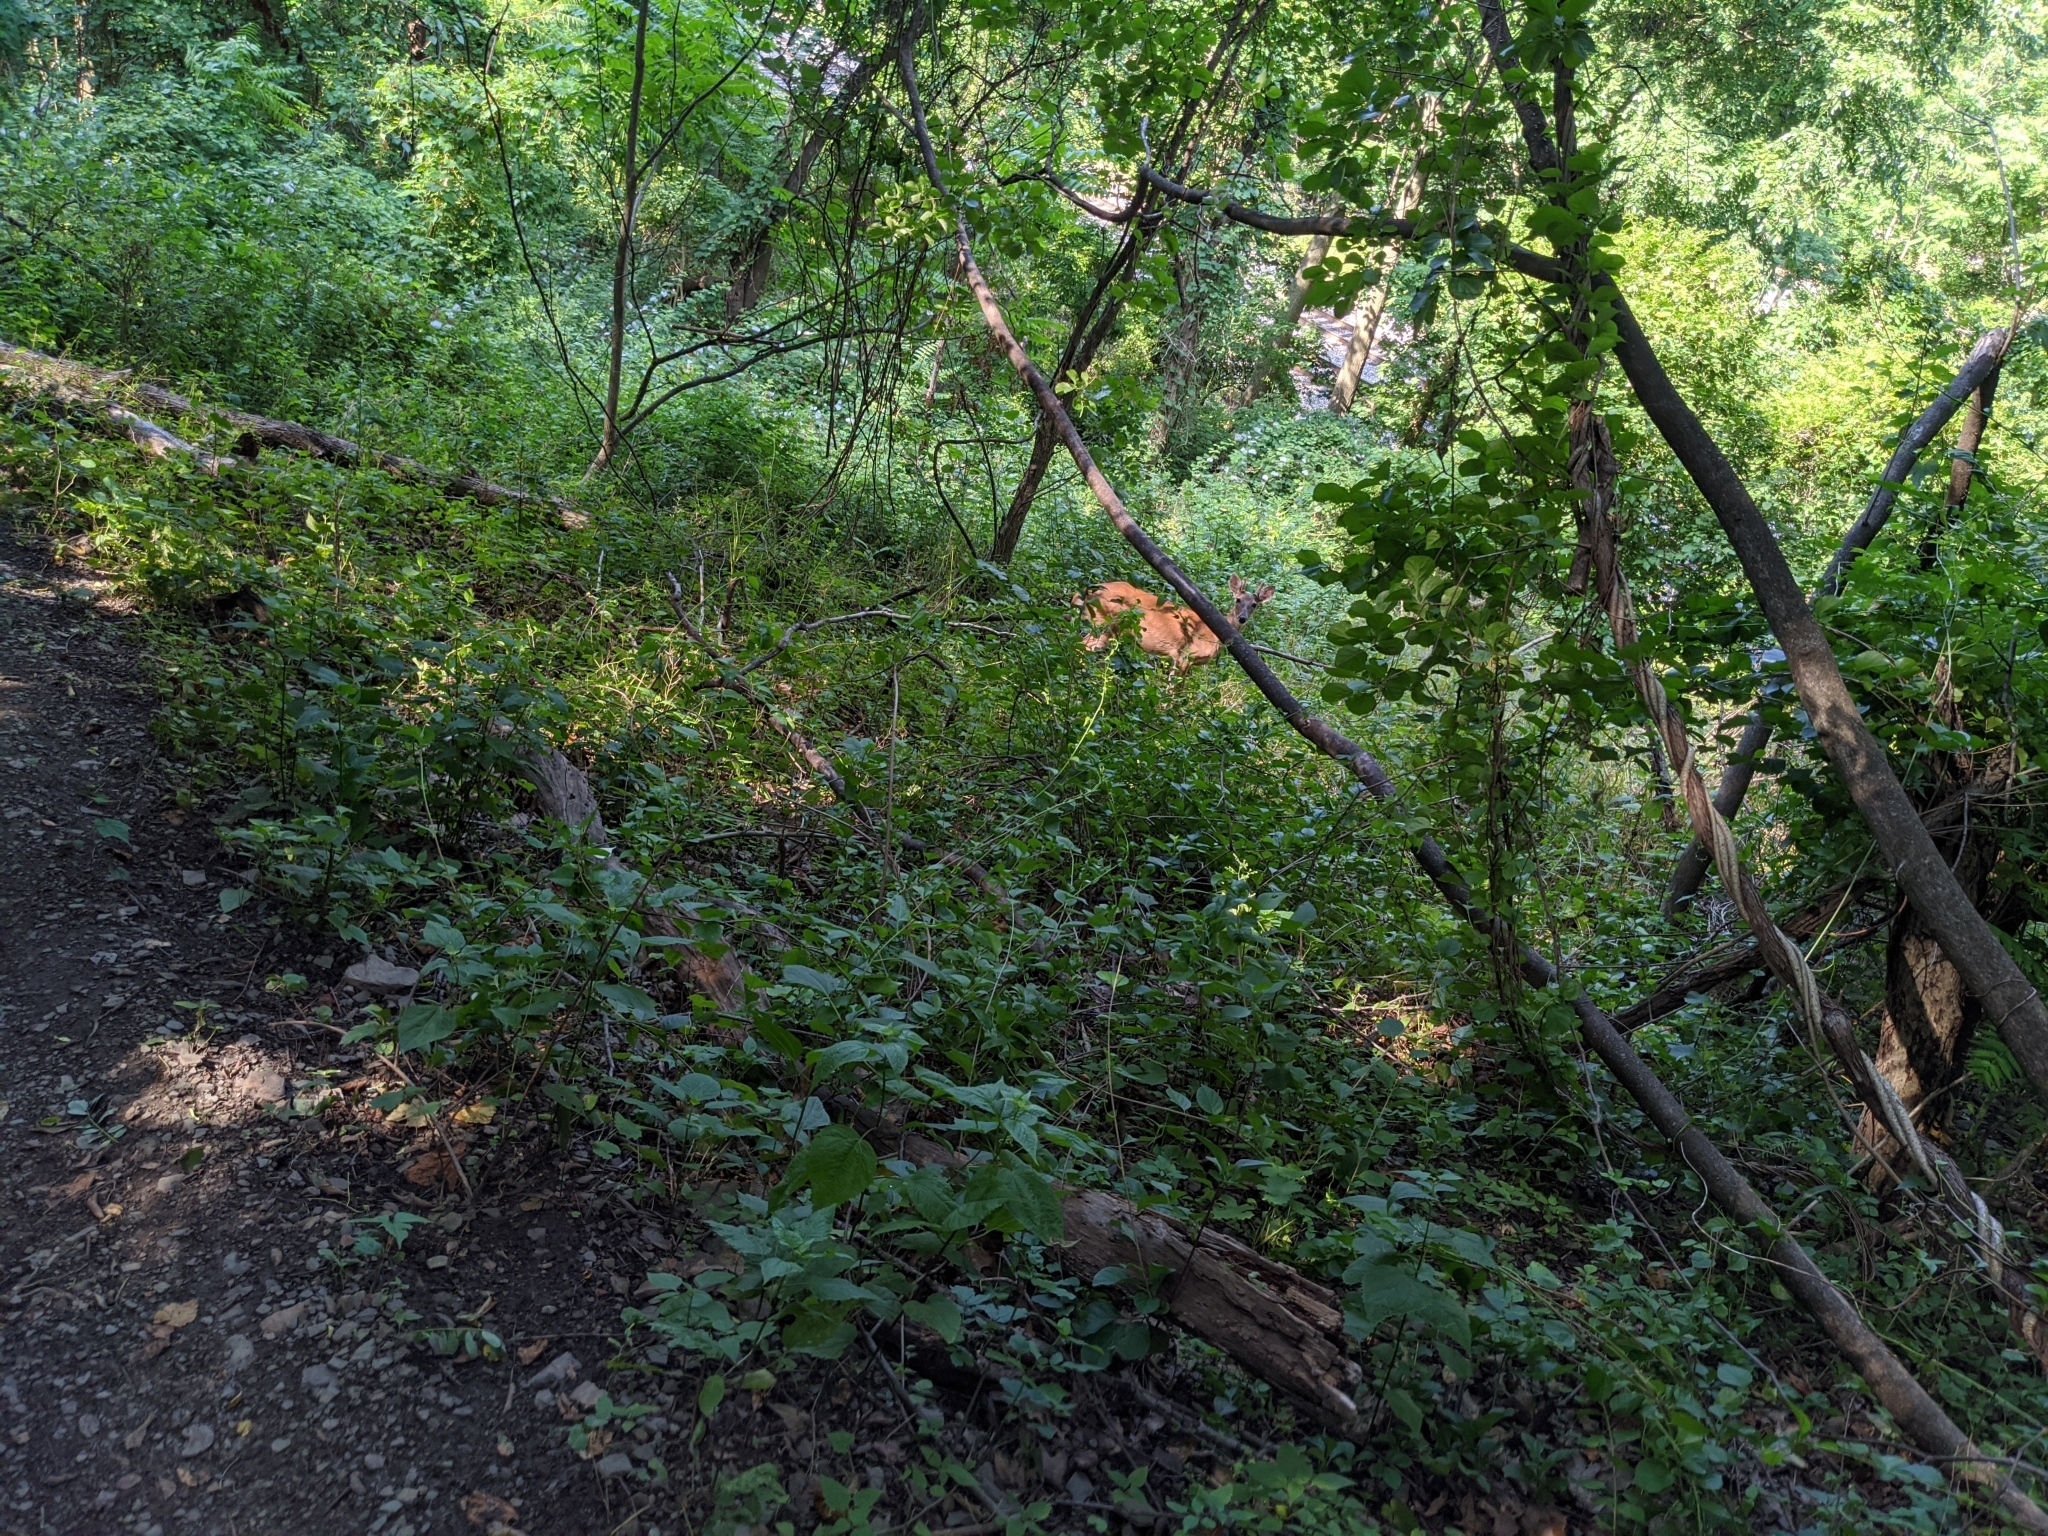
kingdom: Animalia
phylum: Chordata
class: Mammalia
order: Artiodactyla
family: Cervidae
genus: Odocoileus
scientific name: Odocoileus virginianus
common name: White-tailed deer
